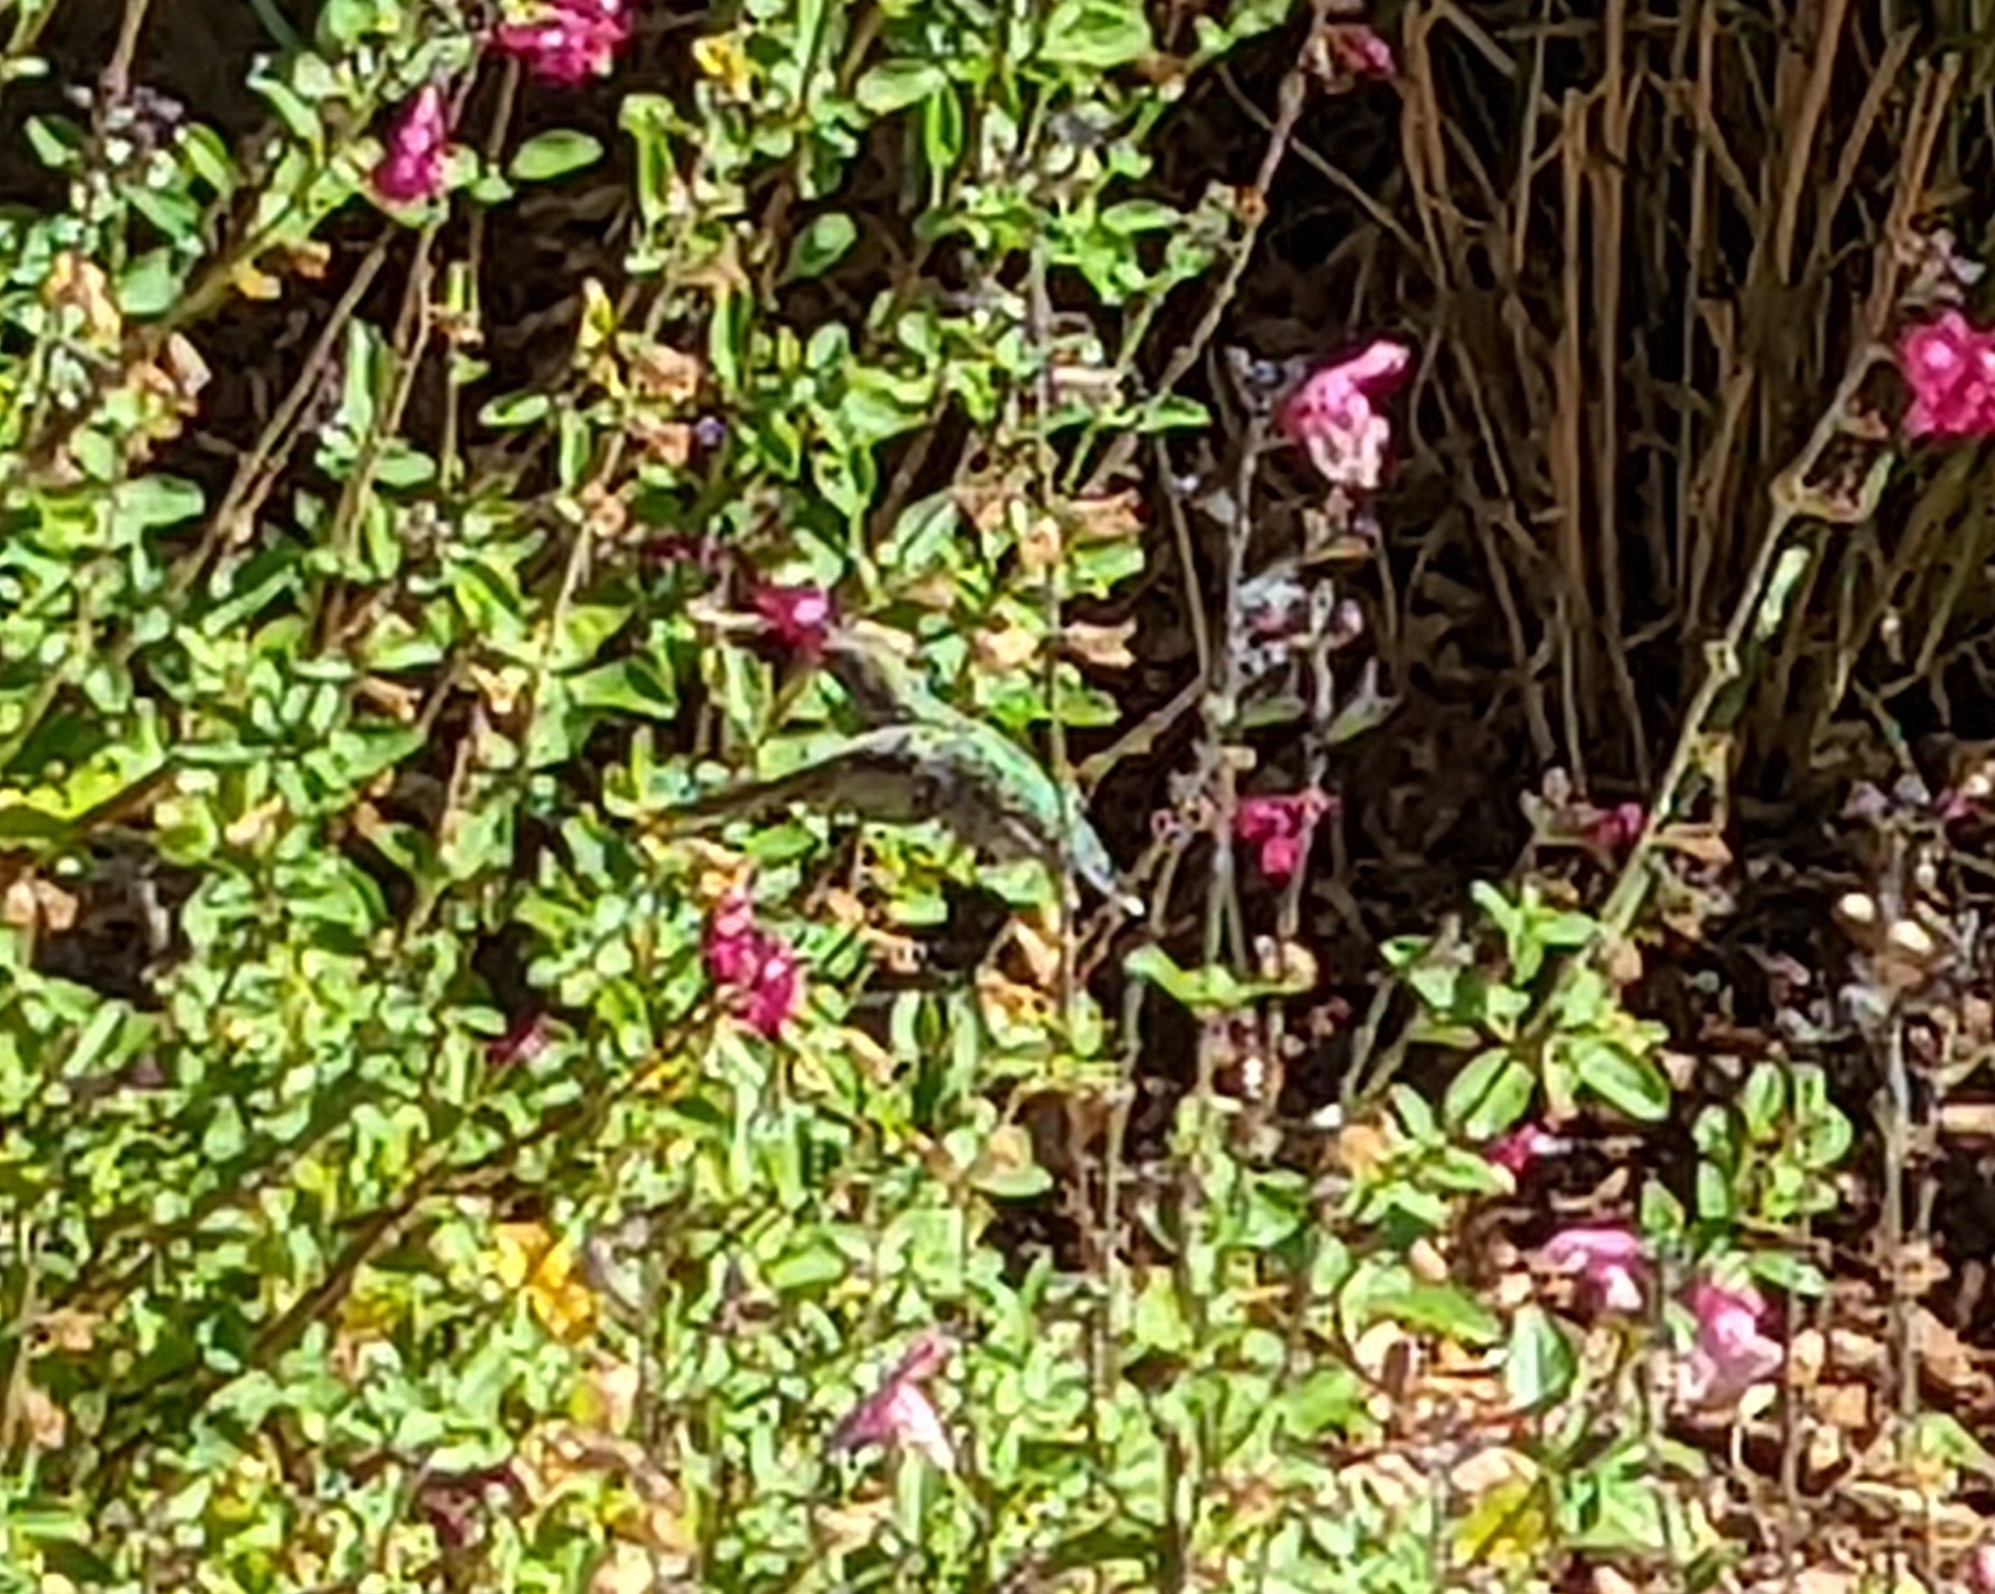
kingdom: Animalia
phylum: Chordata
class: Aves
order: Apodiformes
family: Trochilidae
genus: Calypte
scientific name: Calypte anna
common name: Anna's hummingbird
